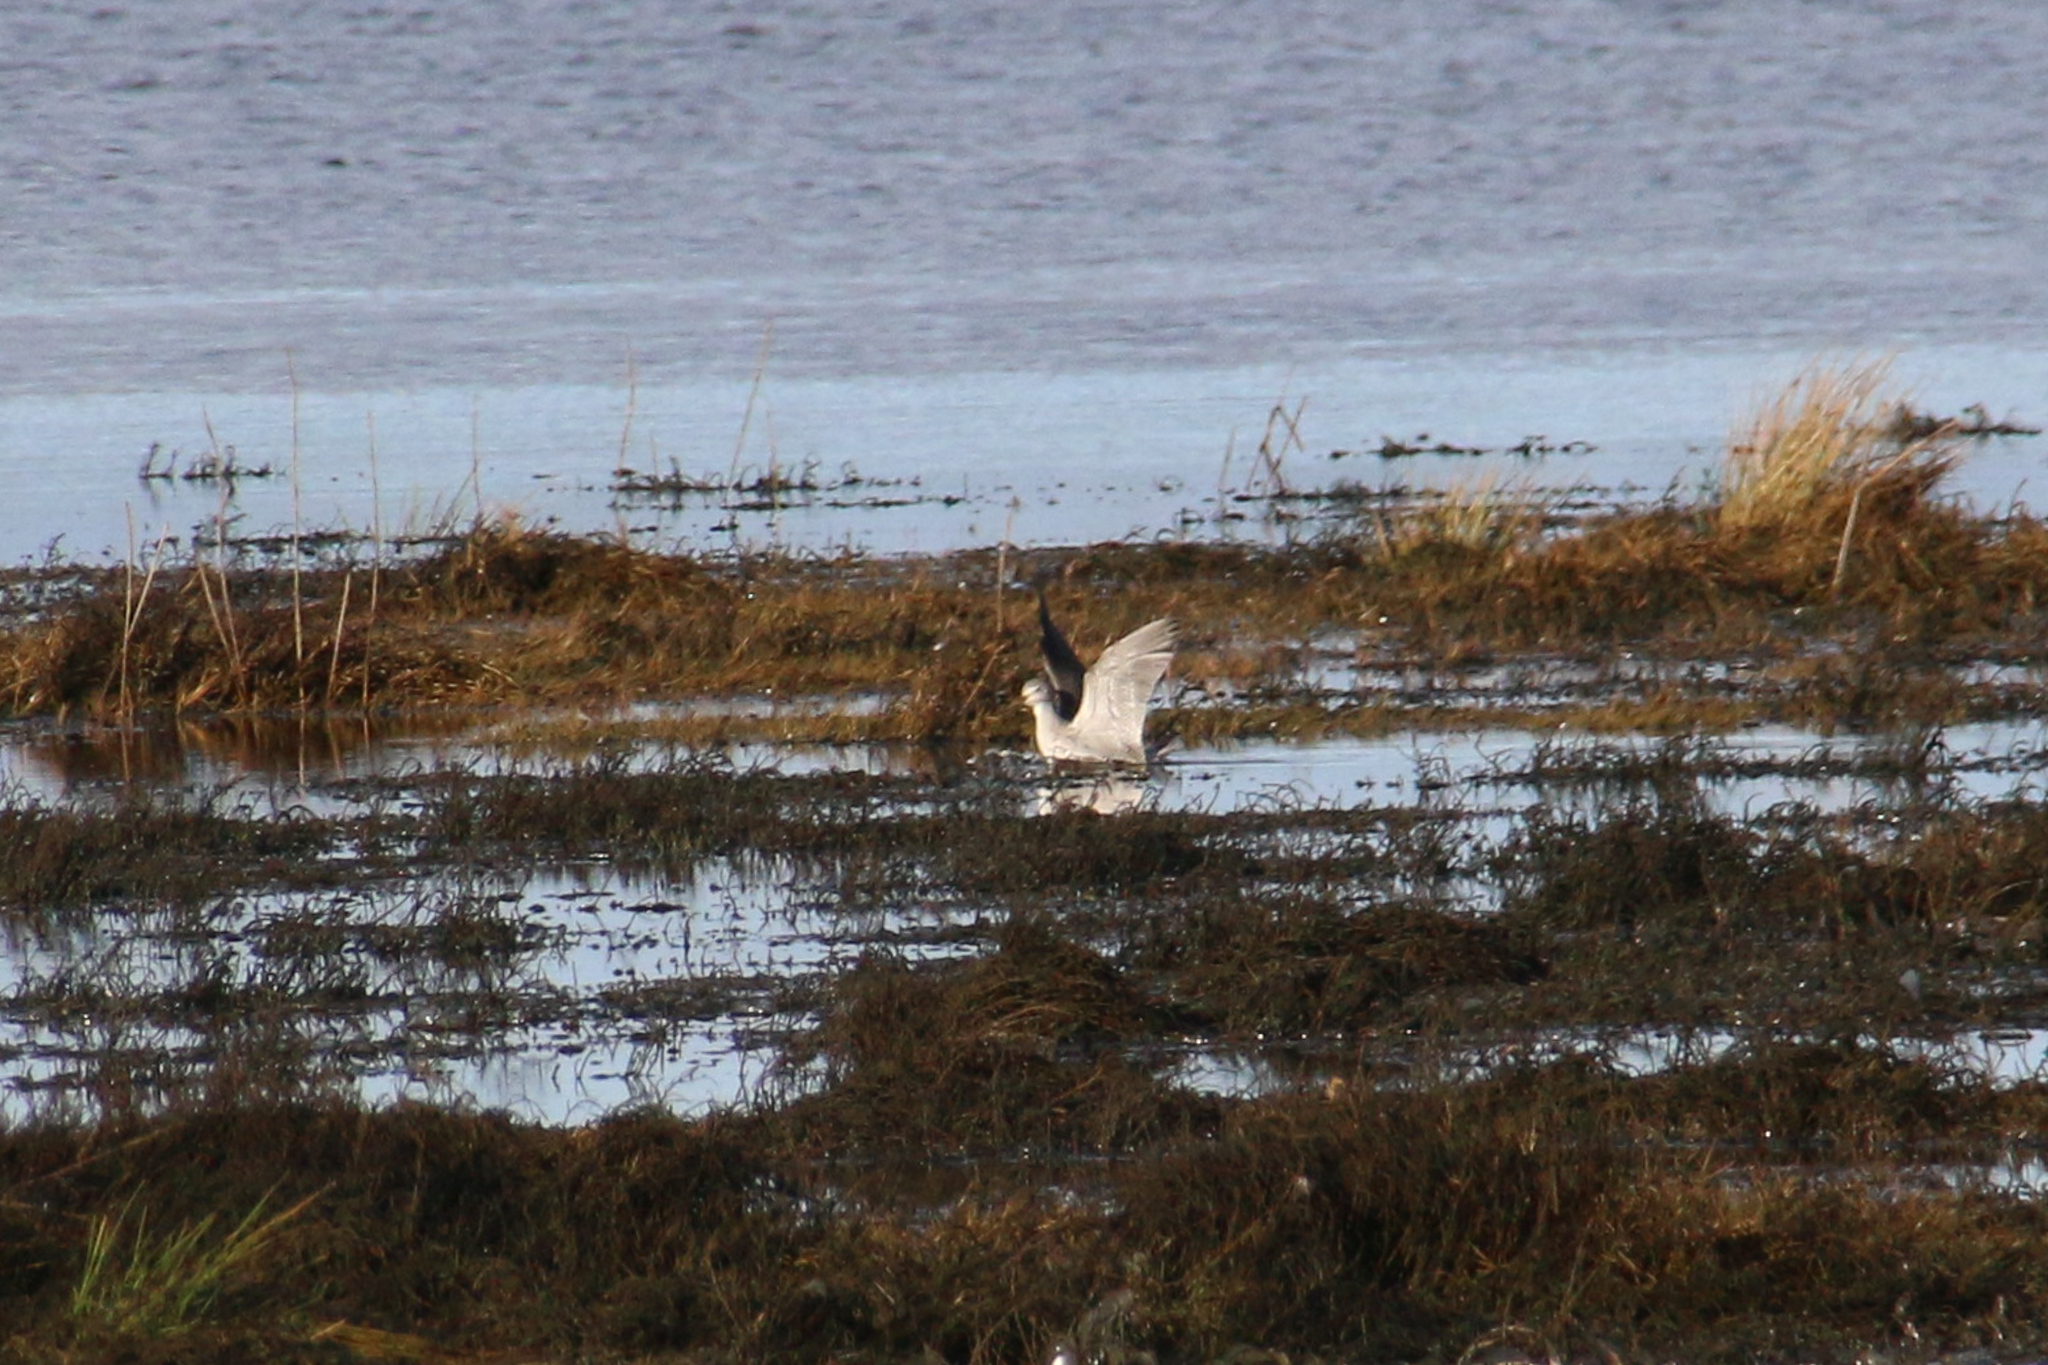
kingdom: Animalia
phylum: Chordata
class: Aves
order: Charadriiformes
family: Scolopacidae
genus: Tringa
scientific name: Tringa melanoleuca
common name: Greater yellowlegs
